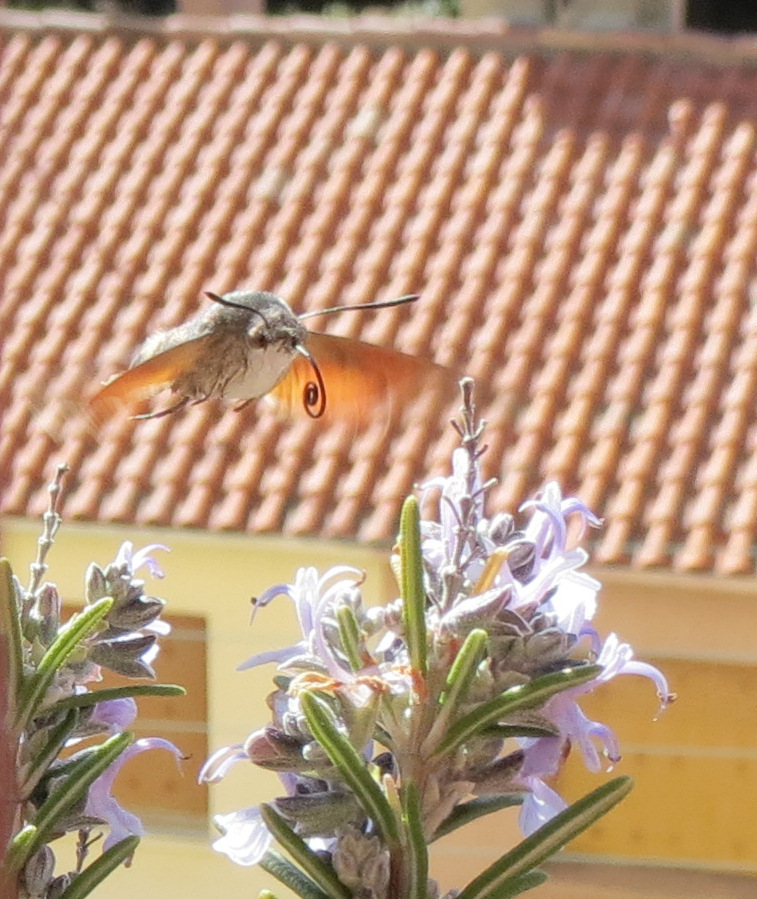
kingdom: Animalia
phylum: Arthropoda
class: Insecta
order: Lepidoptera
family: Sphingidae
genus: Macroglossum
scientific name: Macroglossum stellatarum
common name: Humming-bird hawk-moth
